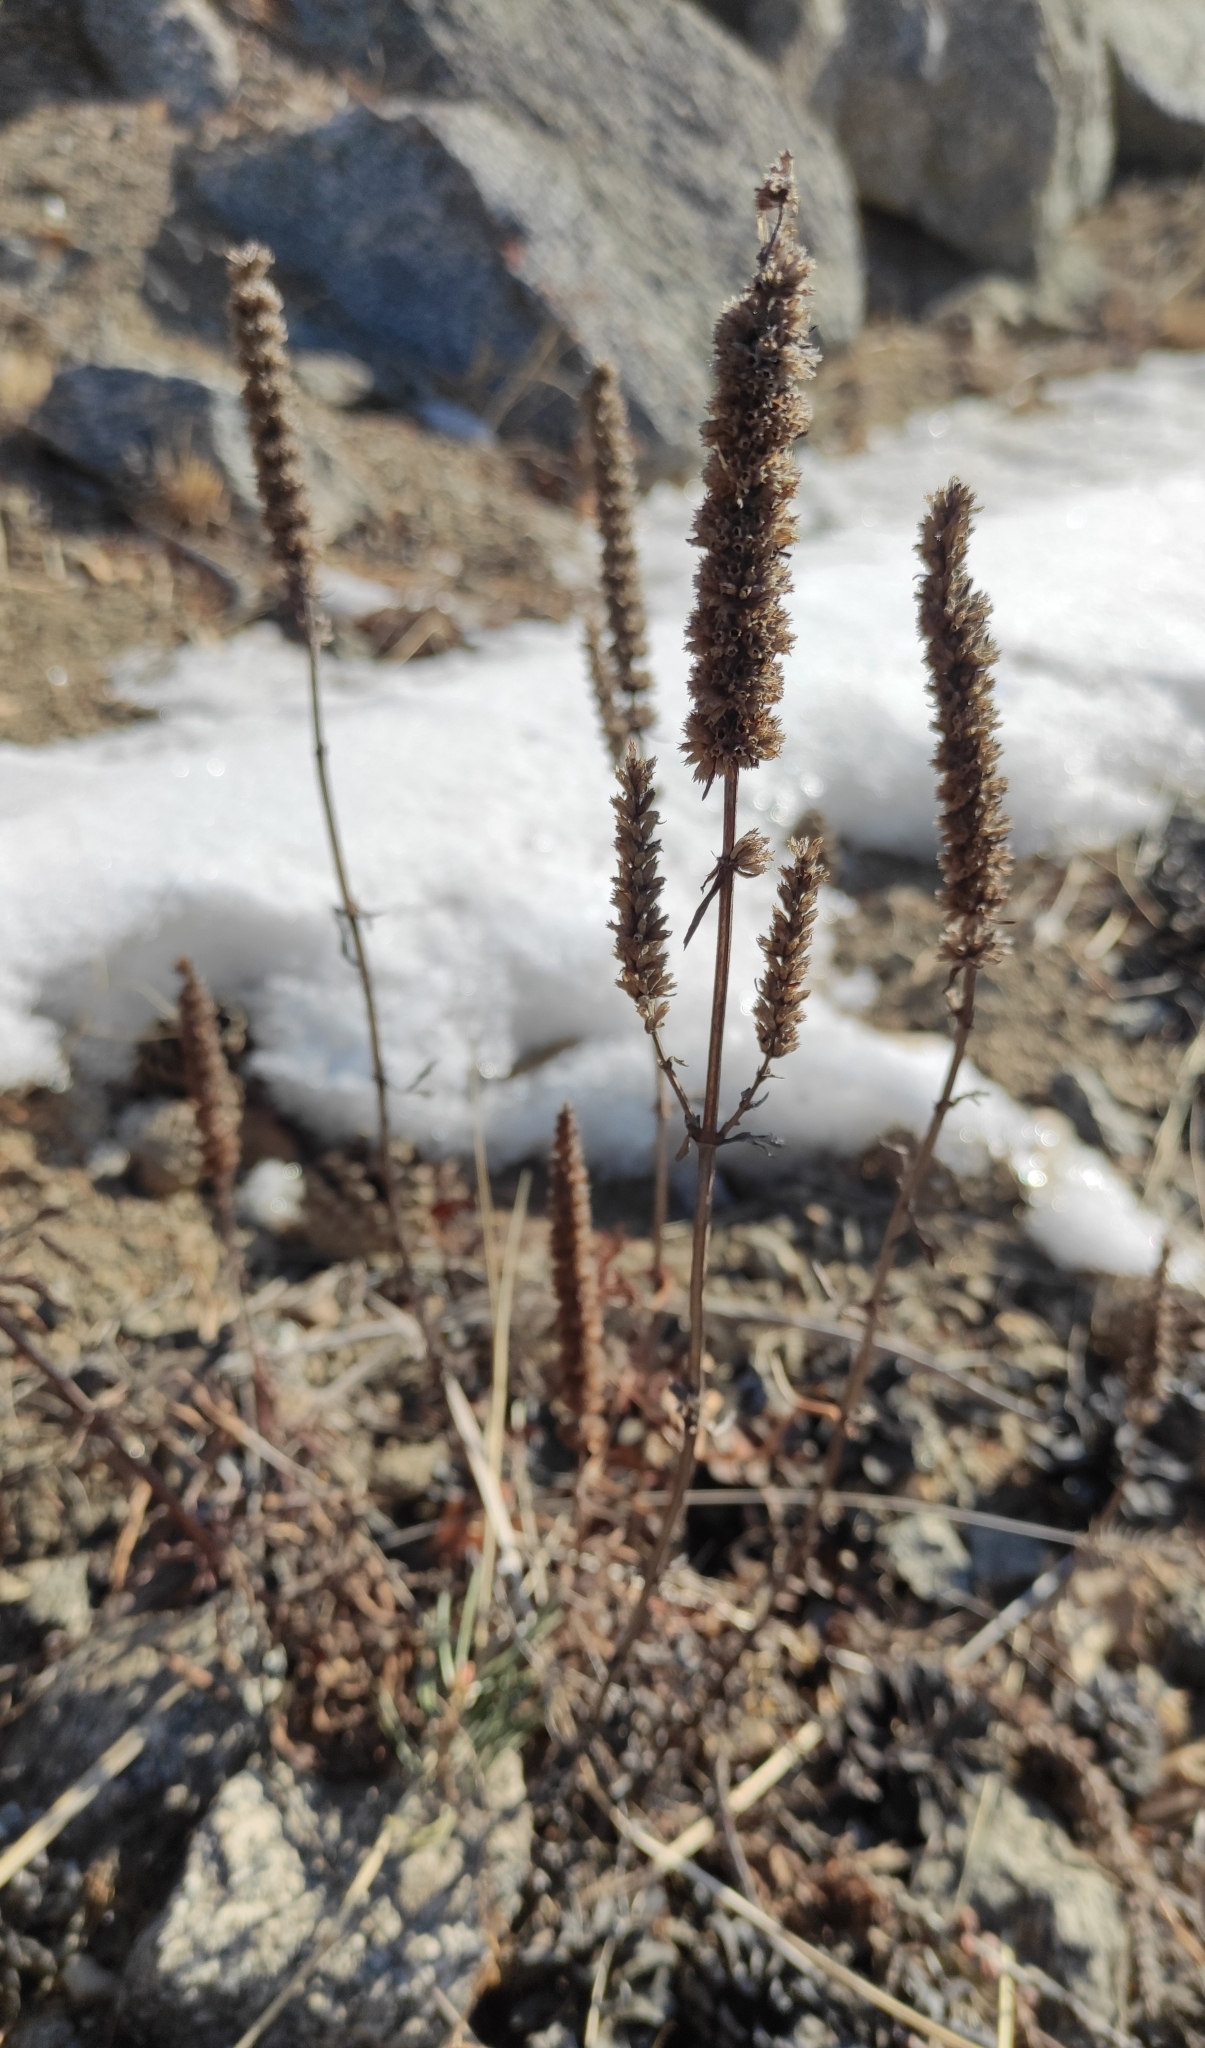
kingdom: Plantae
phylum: Tracheophyta
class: Magnoliopsida
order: Lamiales
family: Lamiaceae
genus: Nepeta
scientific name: Nepeta multifida
